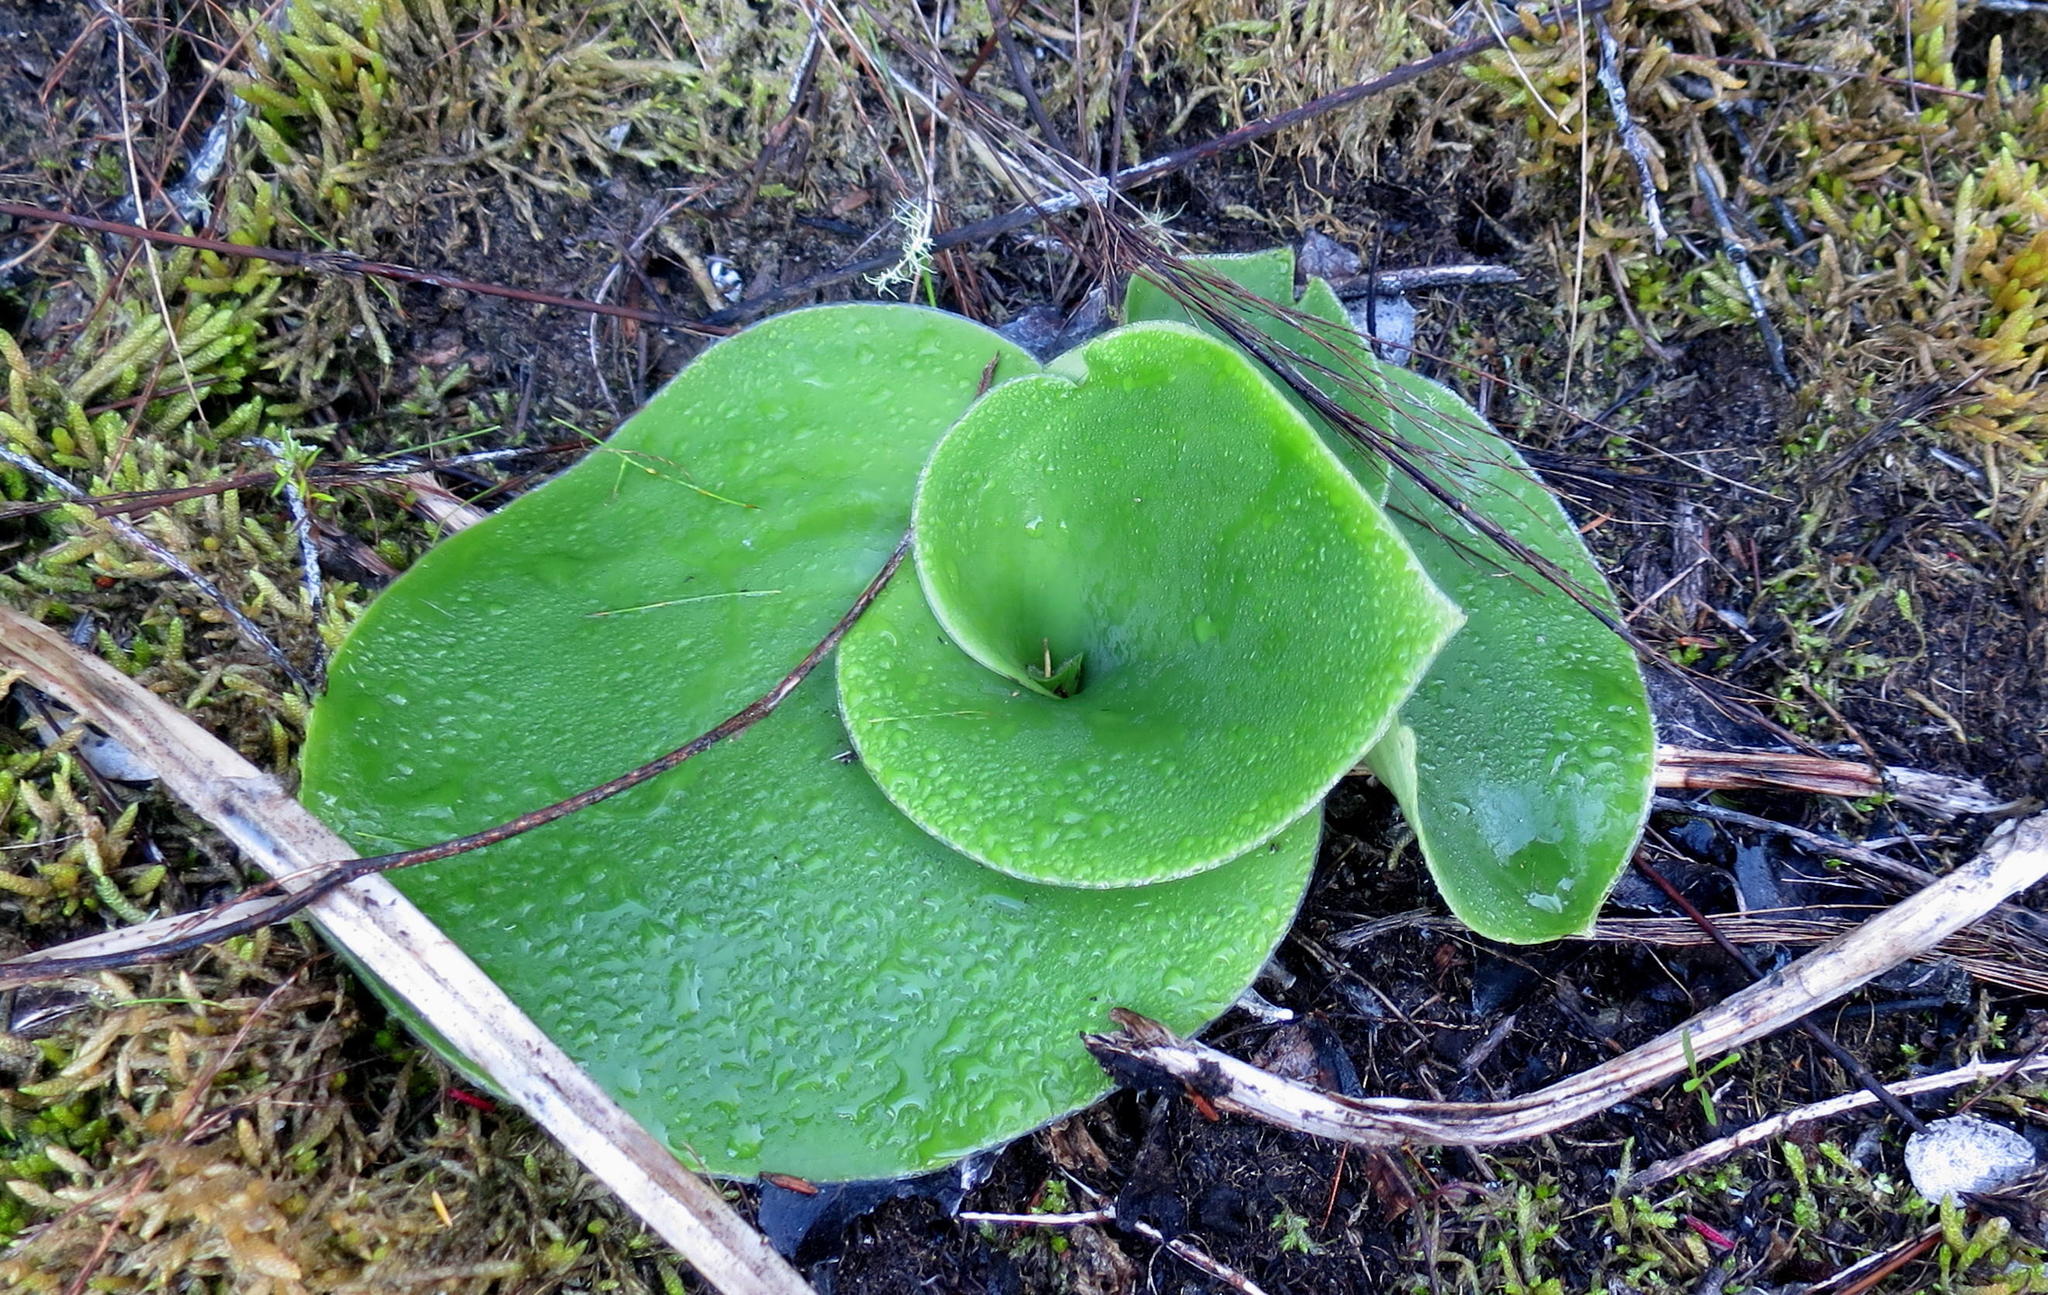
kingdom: Plantae
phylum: Tracheophyta
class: Liliopsida
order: Asparagales
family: Orchidaceae
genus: Satyrium
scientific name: Satyrium princeps
